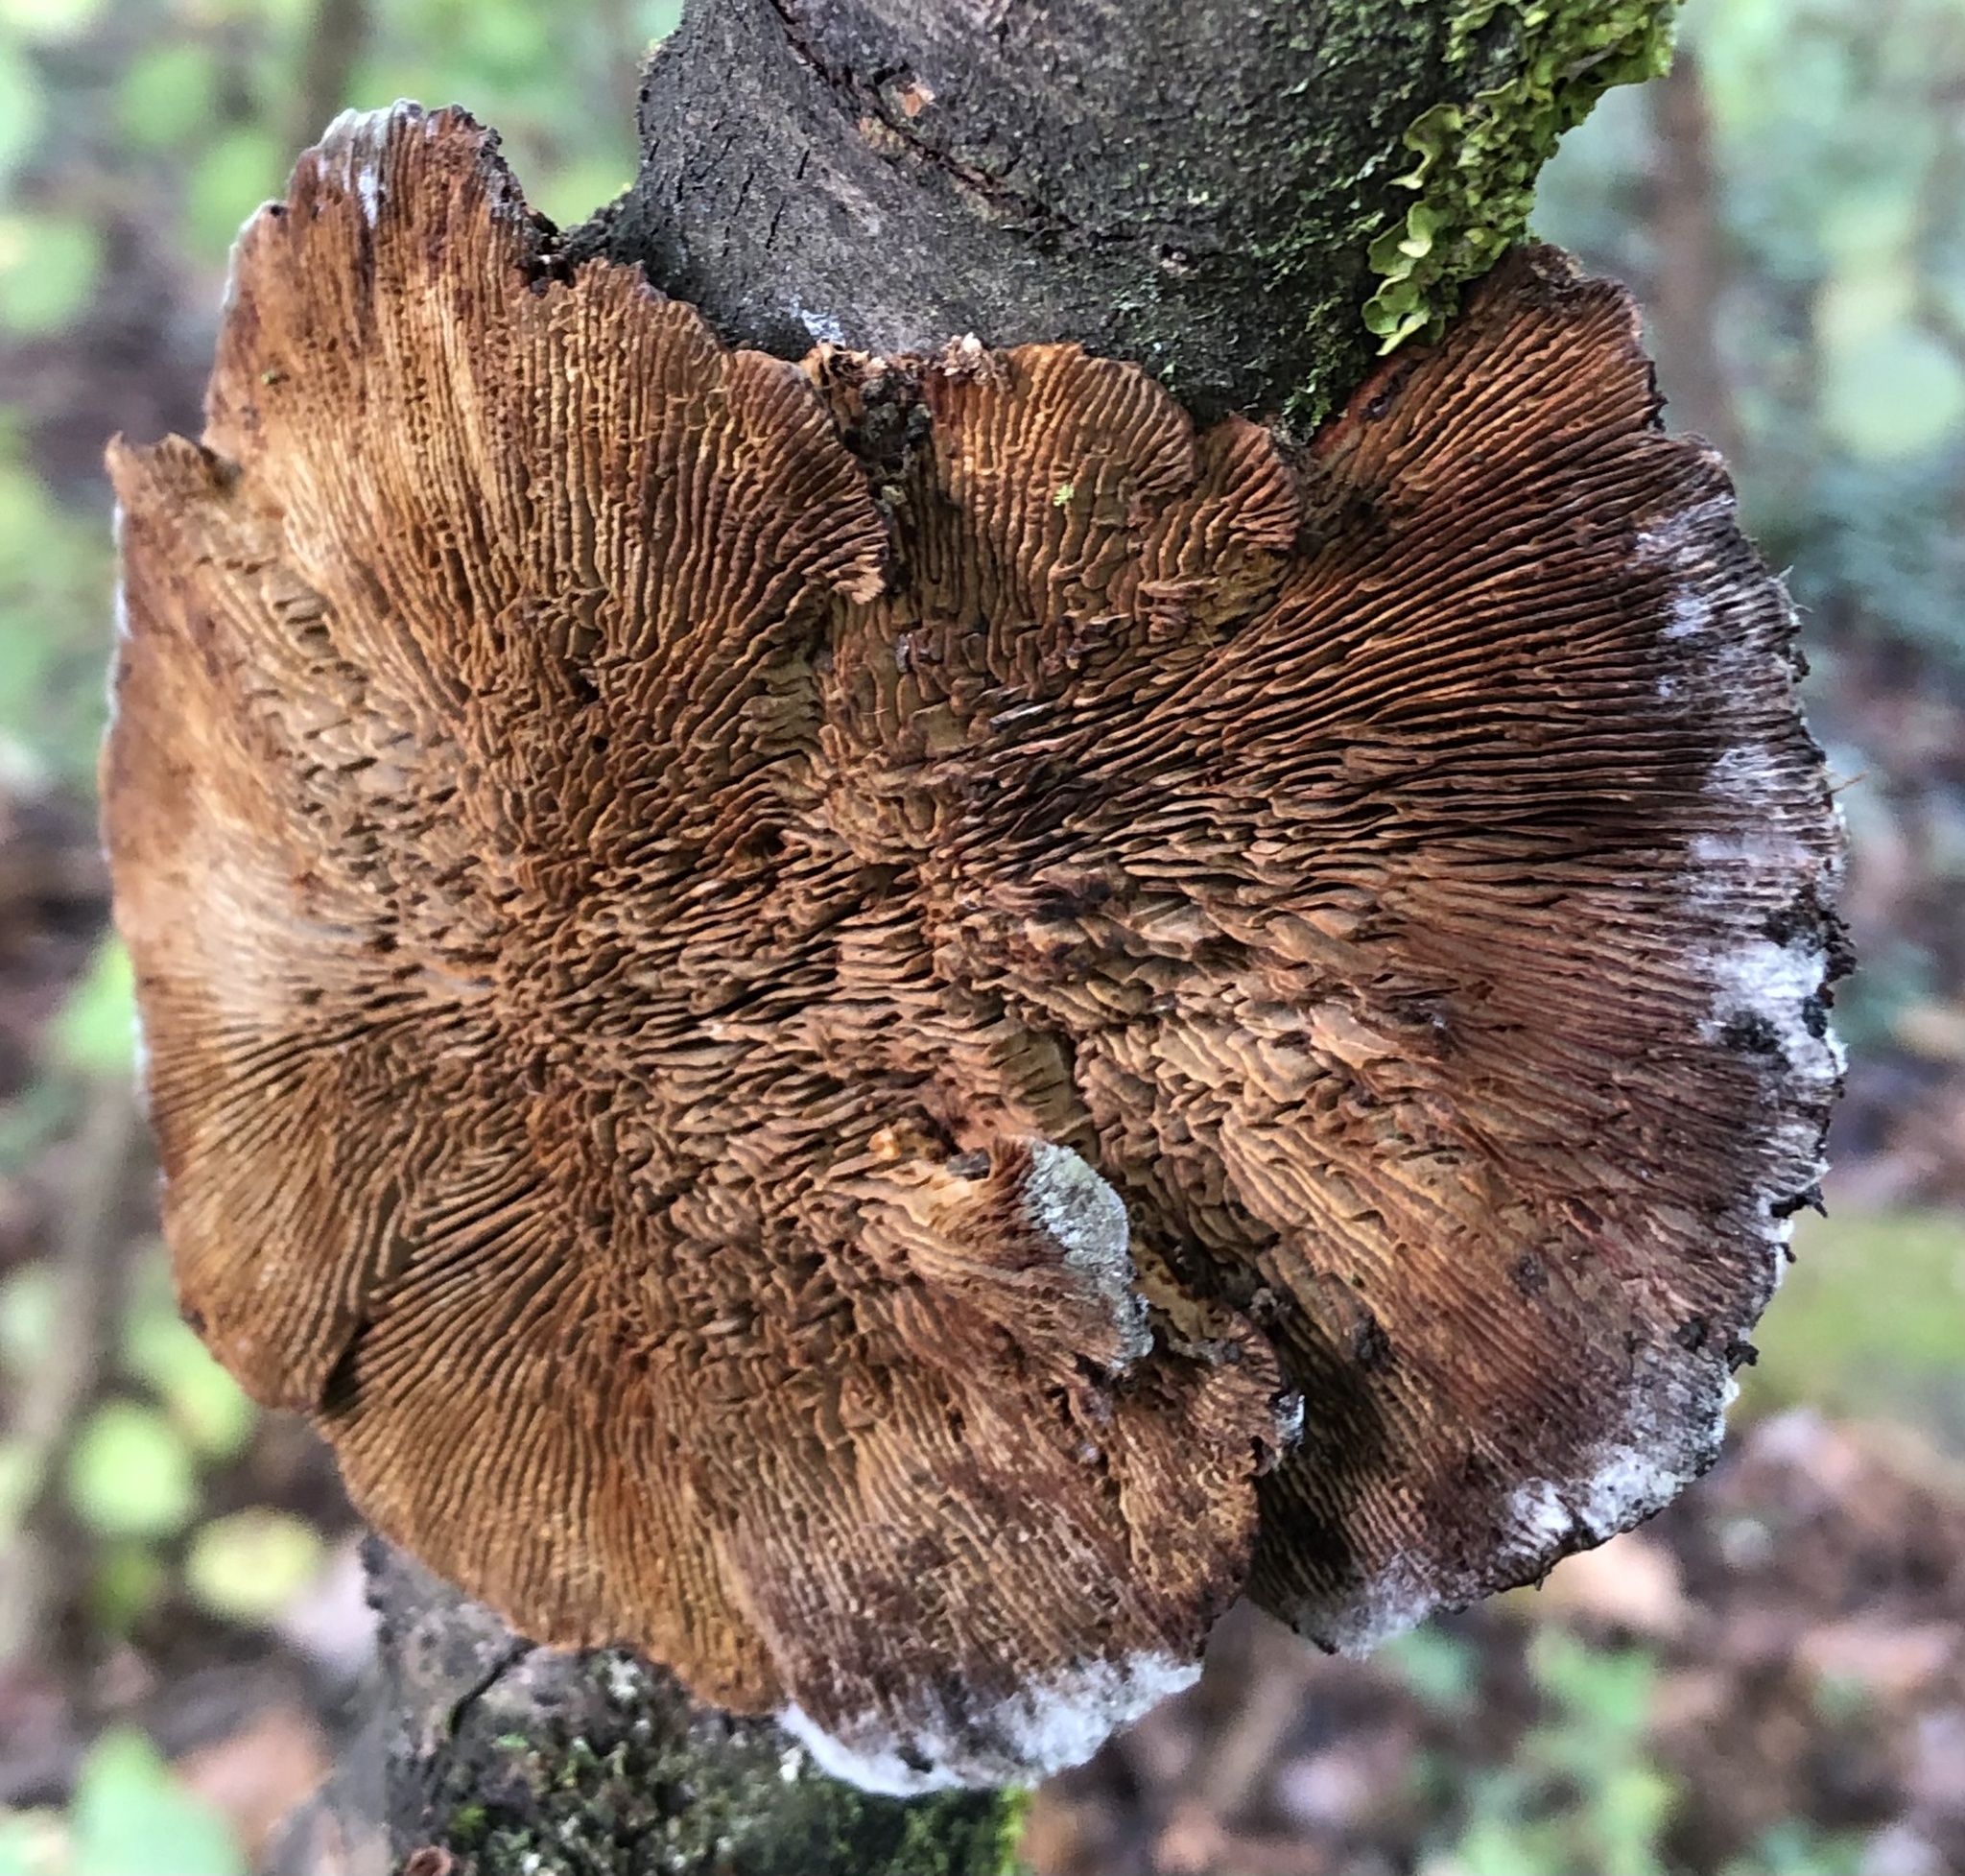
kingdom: Fungi
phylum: Basidiomycota
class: Agaricomycetes
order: Polyporales
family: Polyporaceae
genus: Daedaleopsis
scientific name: Daedaleopsis tricolor
